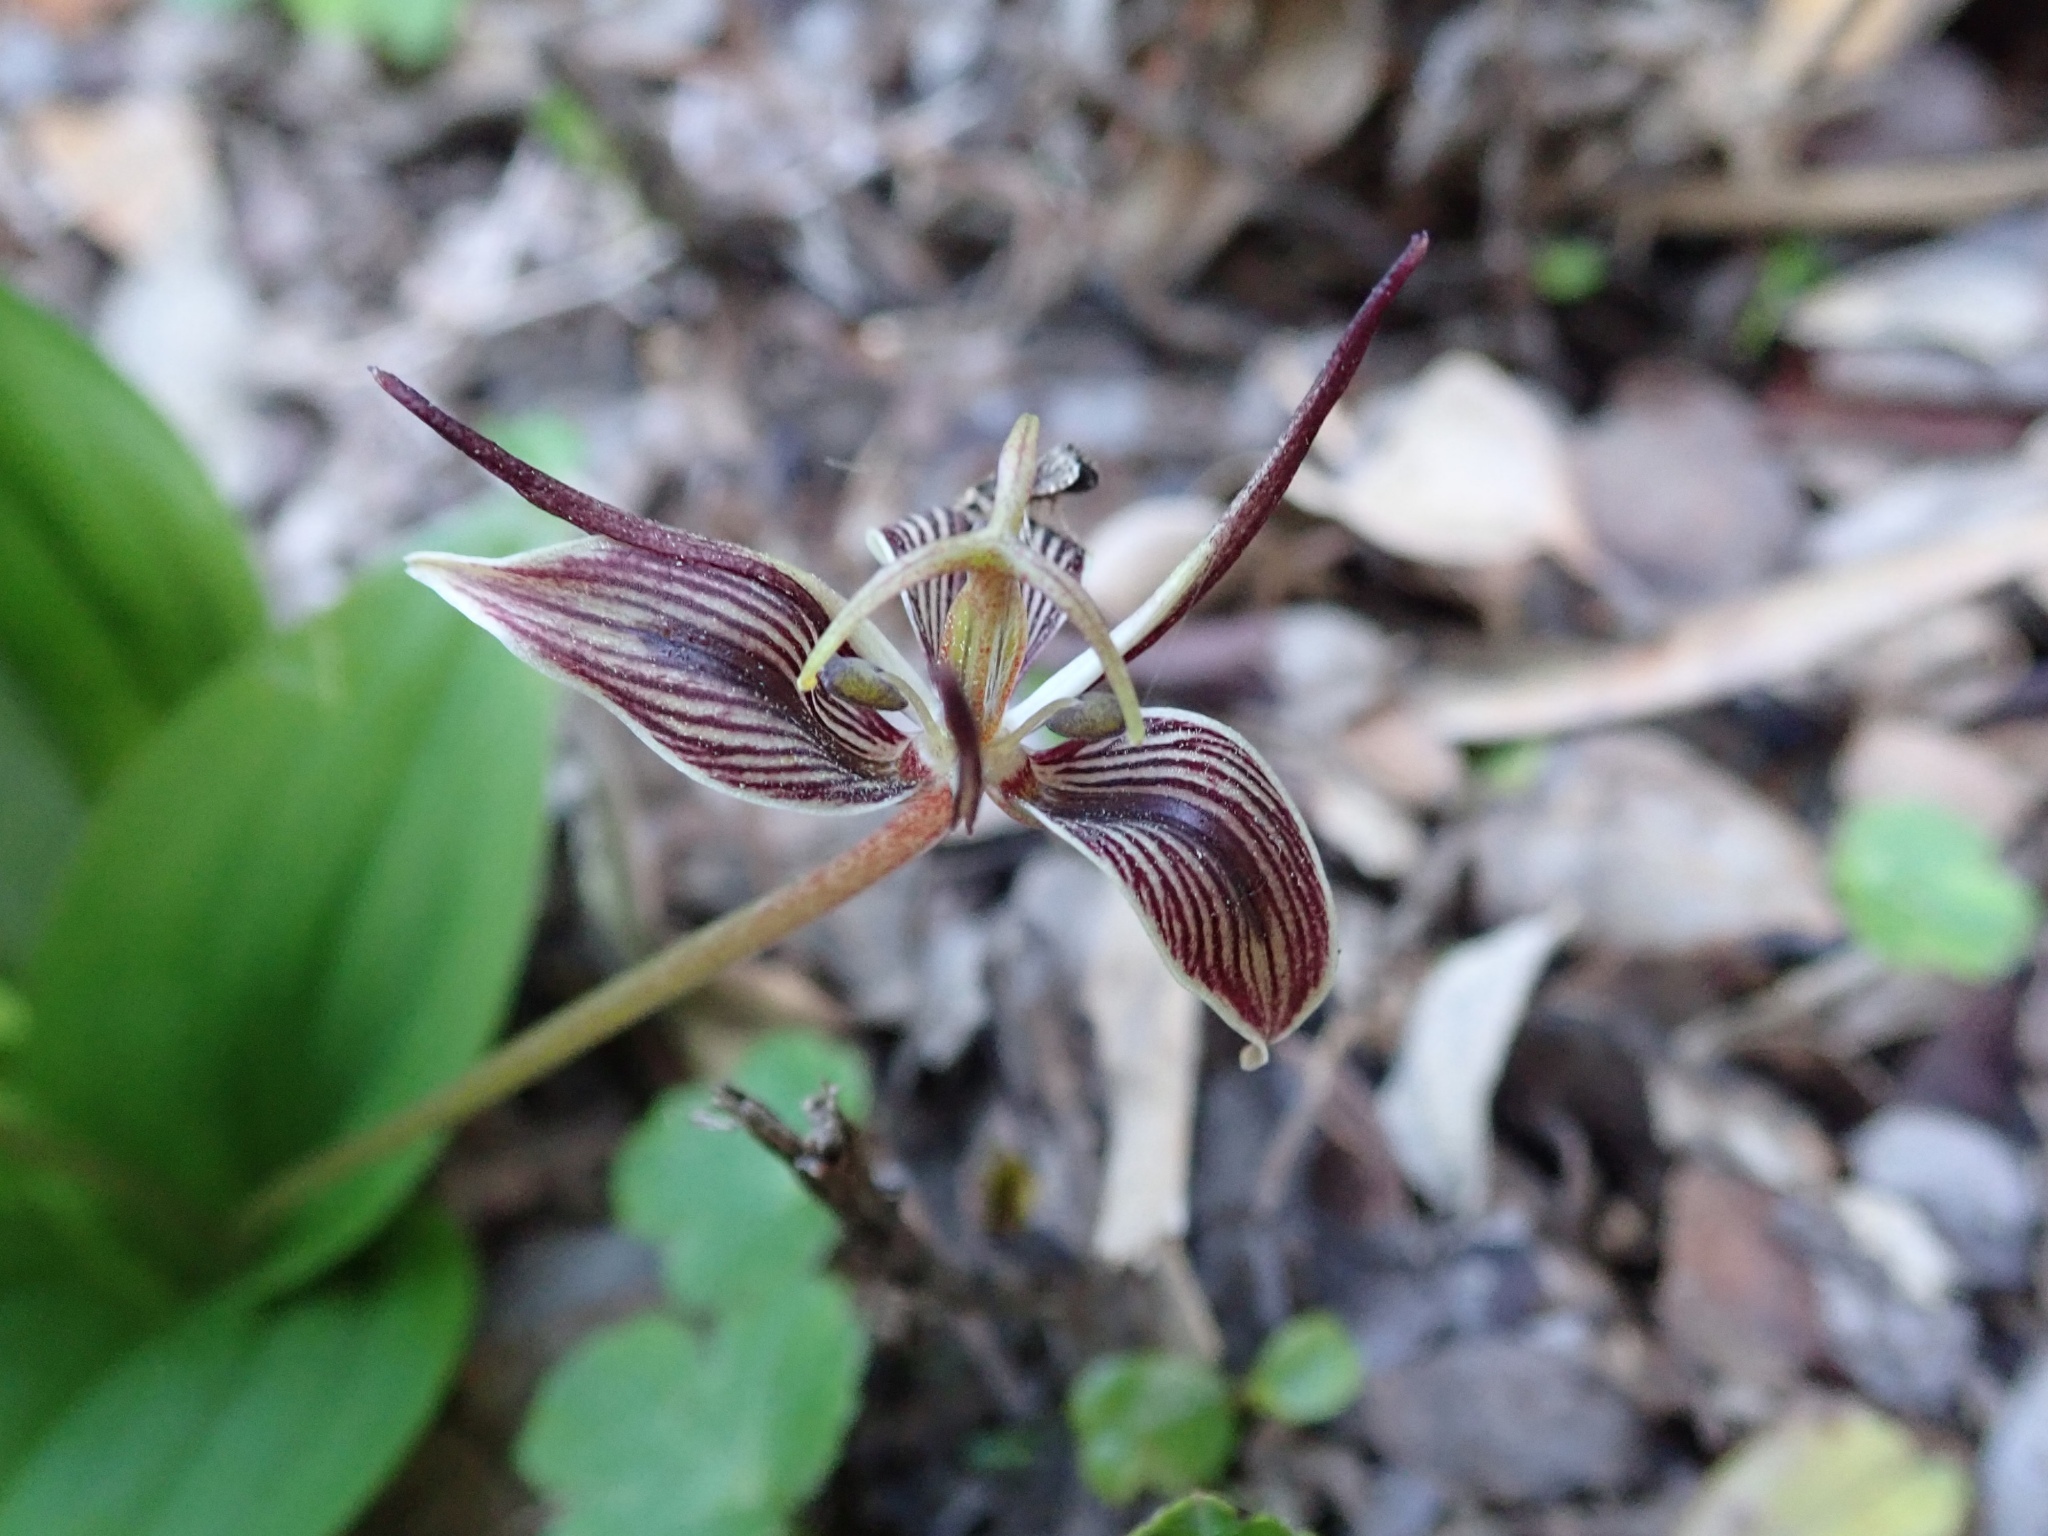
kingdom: Plantae
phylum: Tracheophyta
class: Liliopsida
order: Liliales
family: Liliaceae
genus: Scoliopus
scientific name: Scoliopus bigelovii
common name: Foetid adder's-tongue
